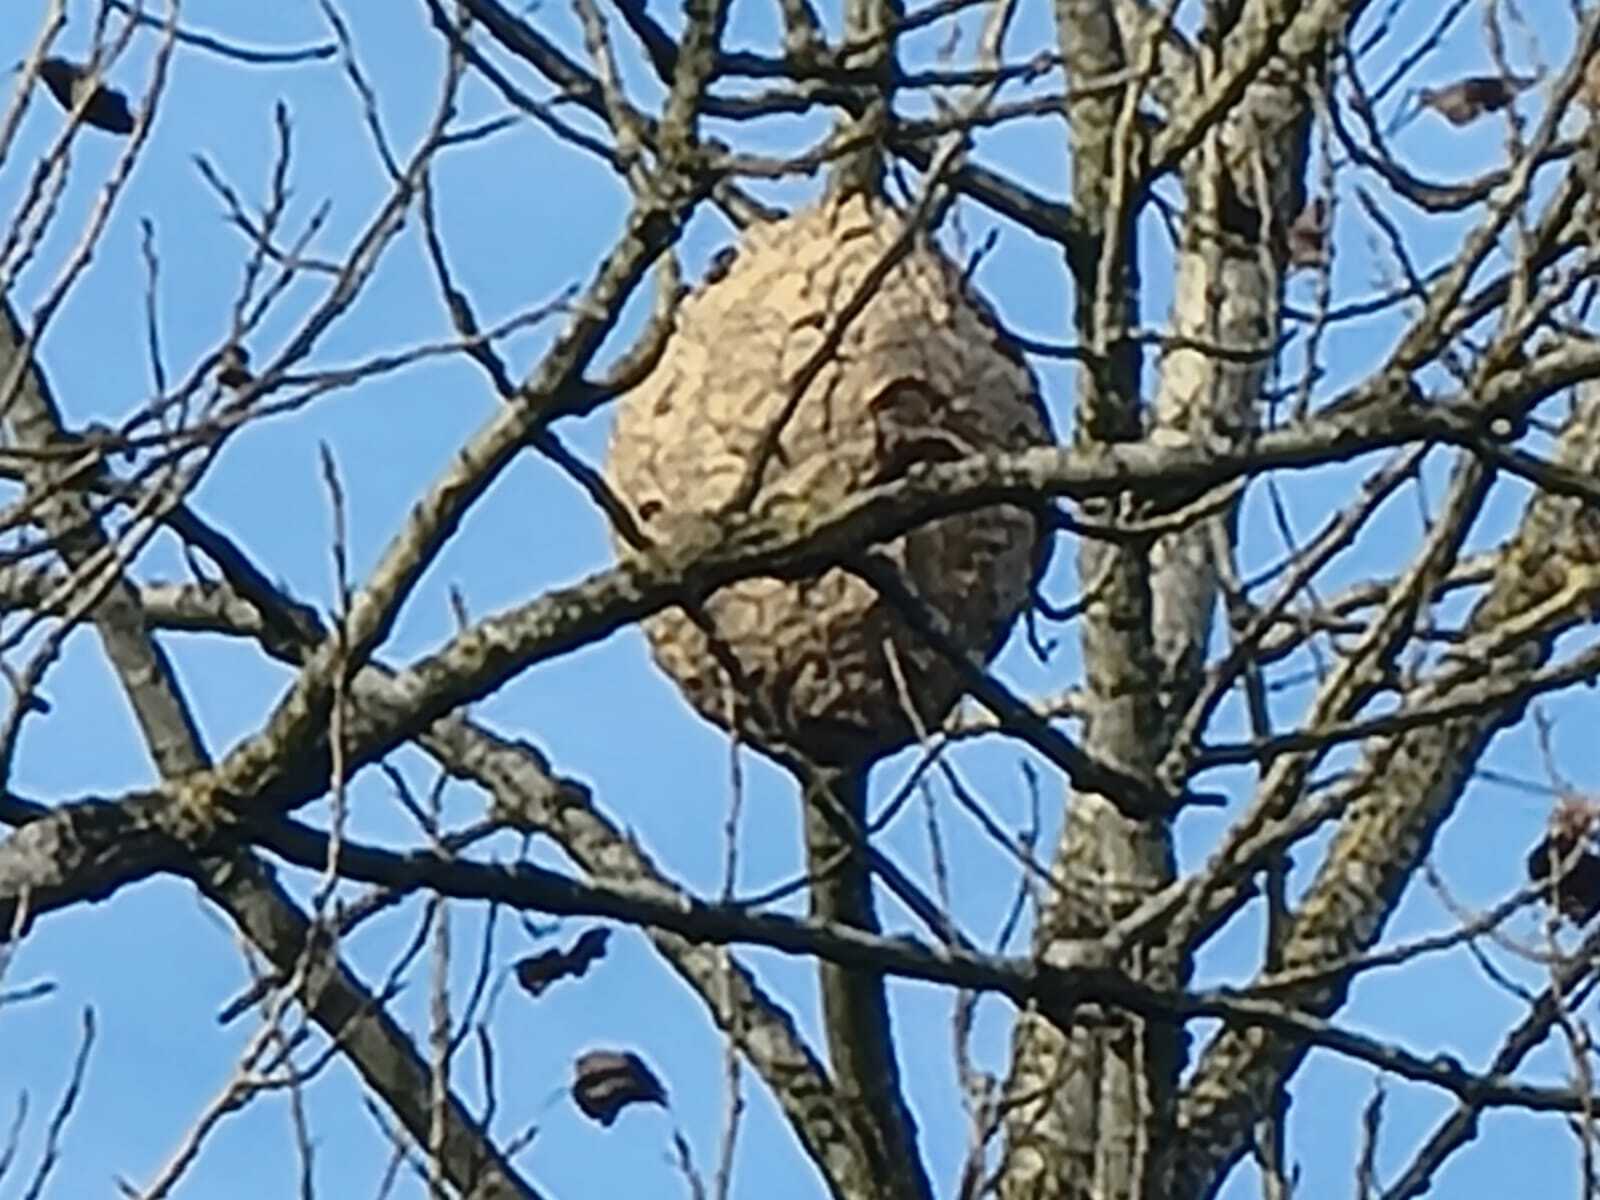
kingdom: Animalia
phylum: Arthropoda
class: Insecta
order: Hymenoptera
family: Vespidae
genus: Vespa
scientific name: Vespa velutina
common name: Asian hornet
